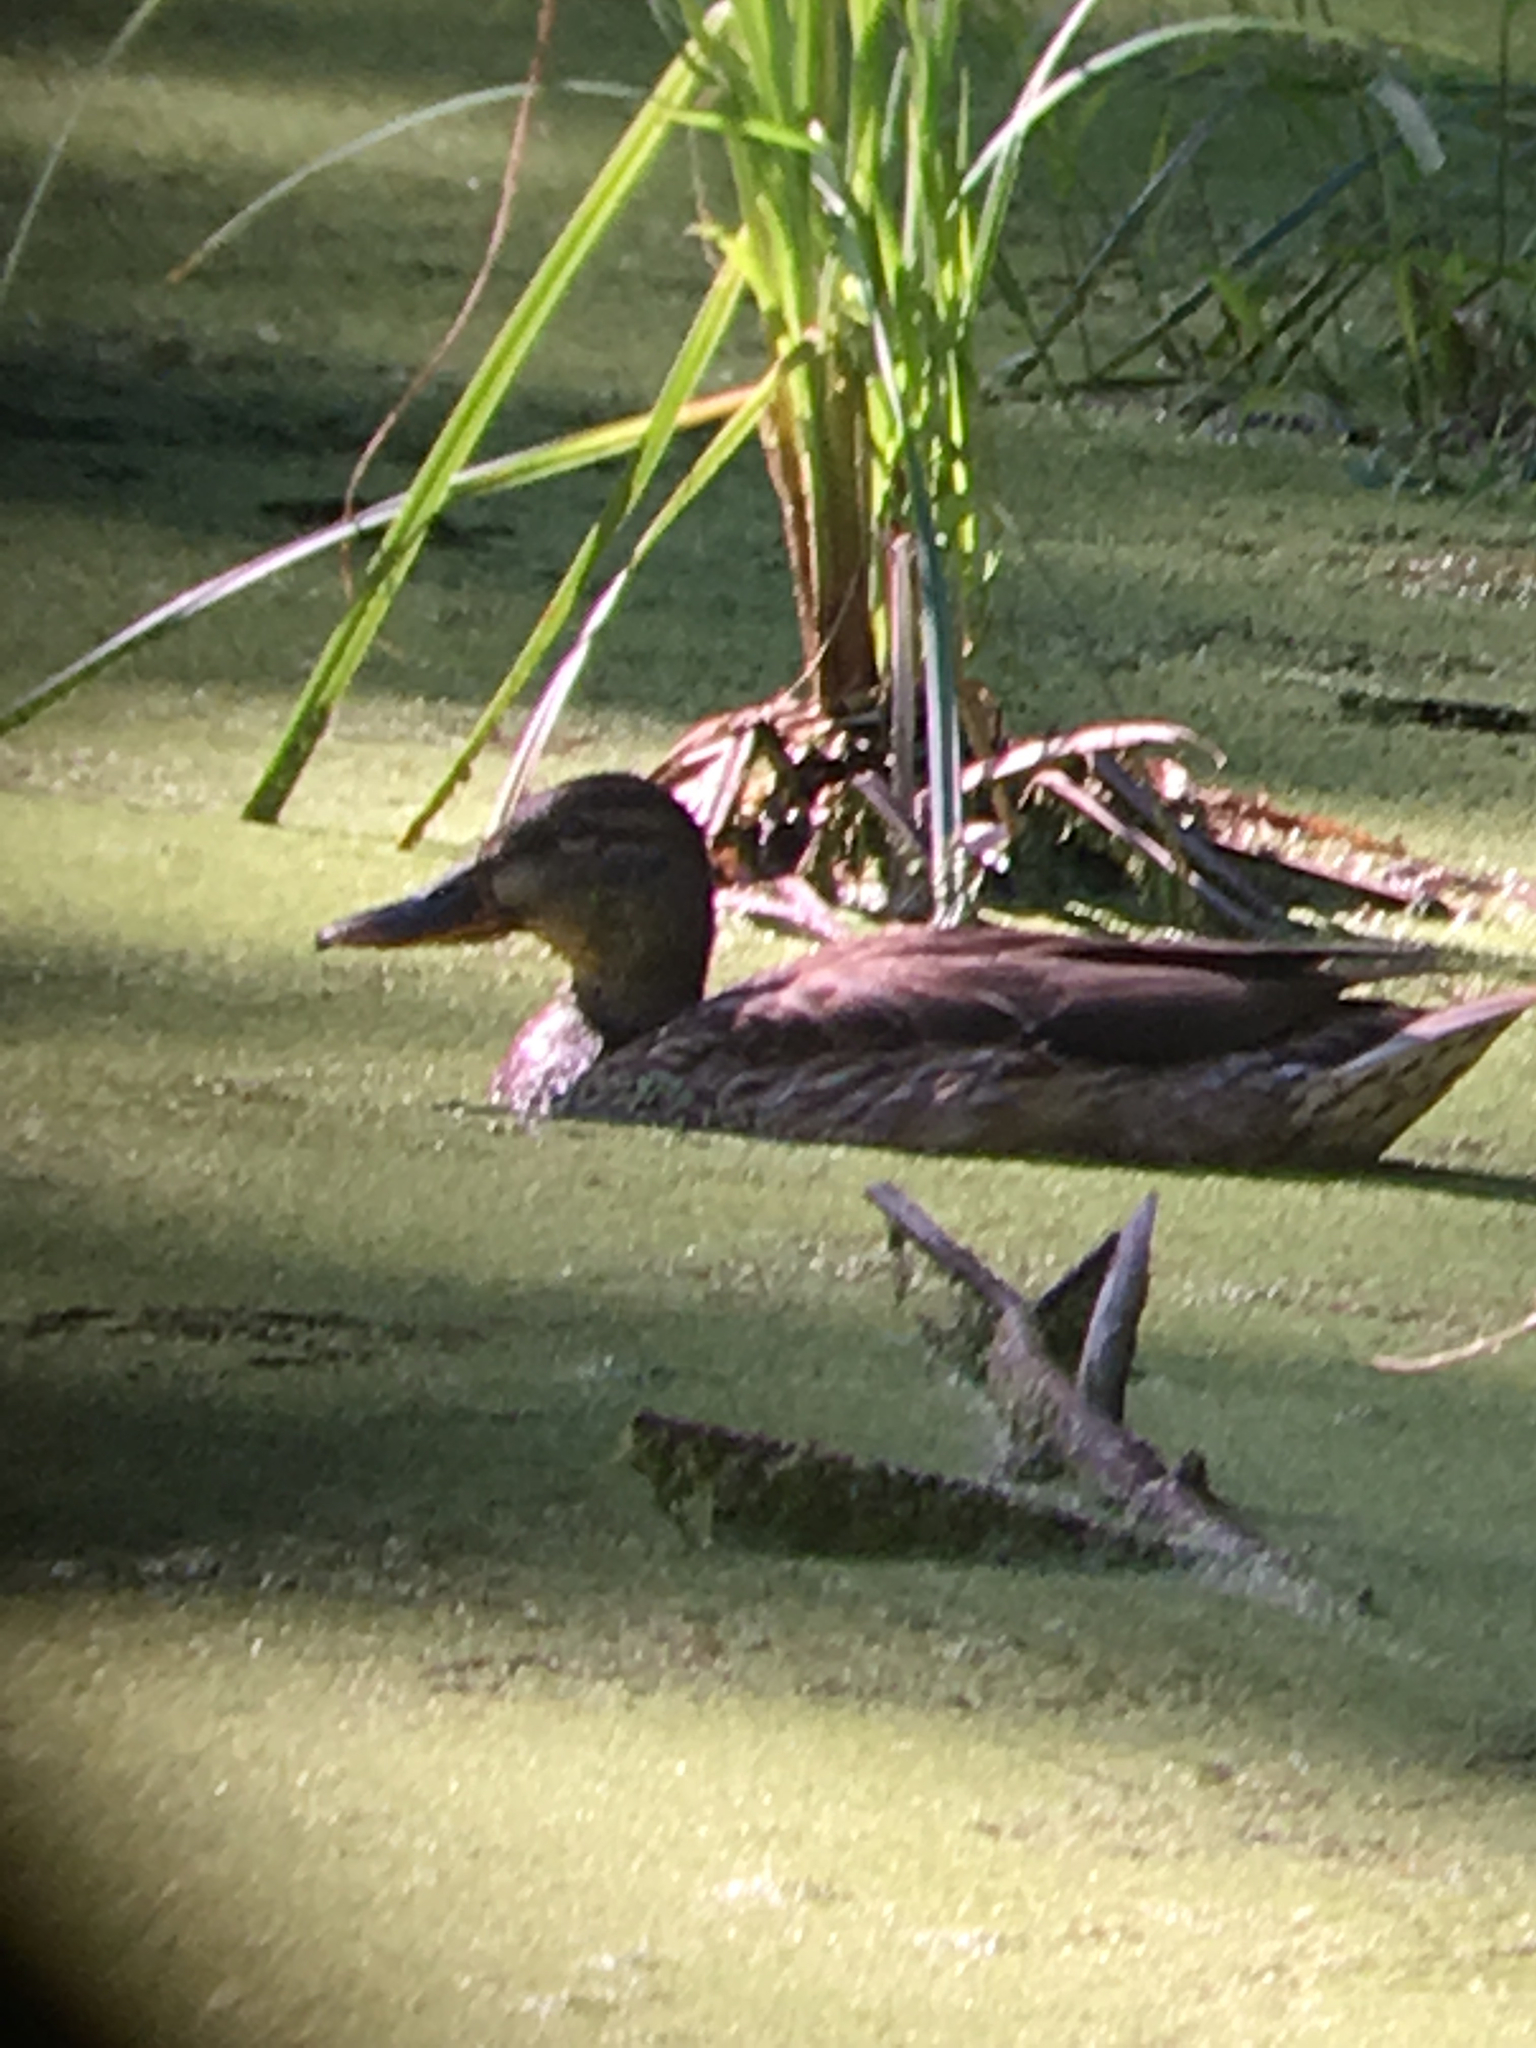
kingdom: Animalia
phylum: Chordata
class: Aves
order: Anseriformes
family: Anatidae
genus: Anas
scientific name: Anas platyrhynchos
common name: Mallard
